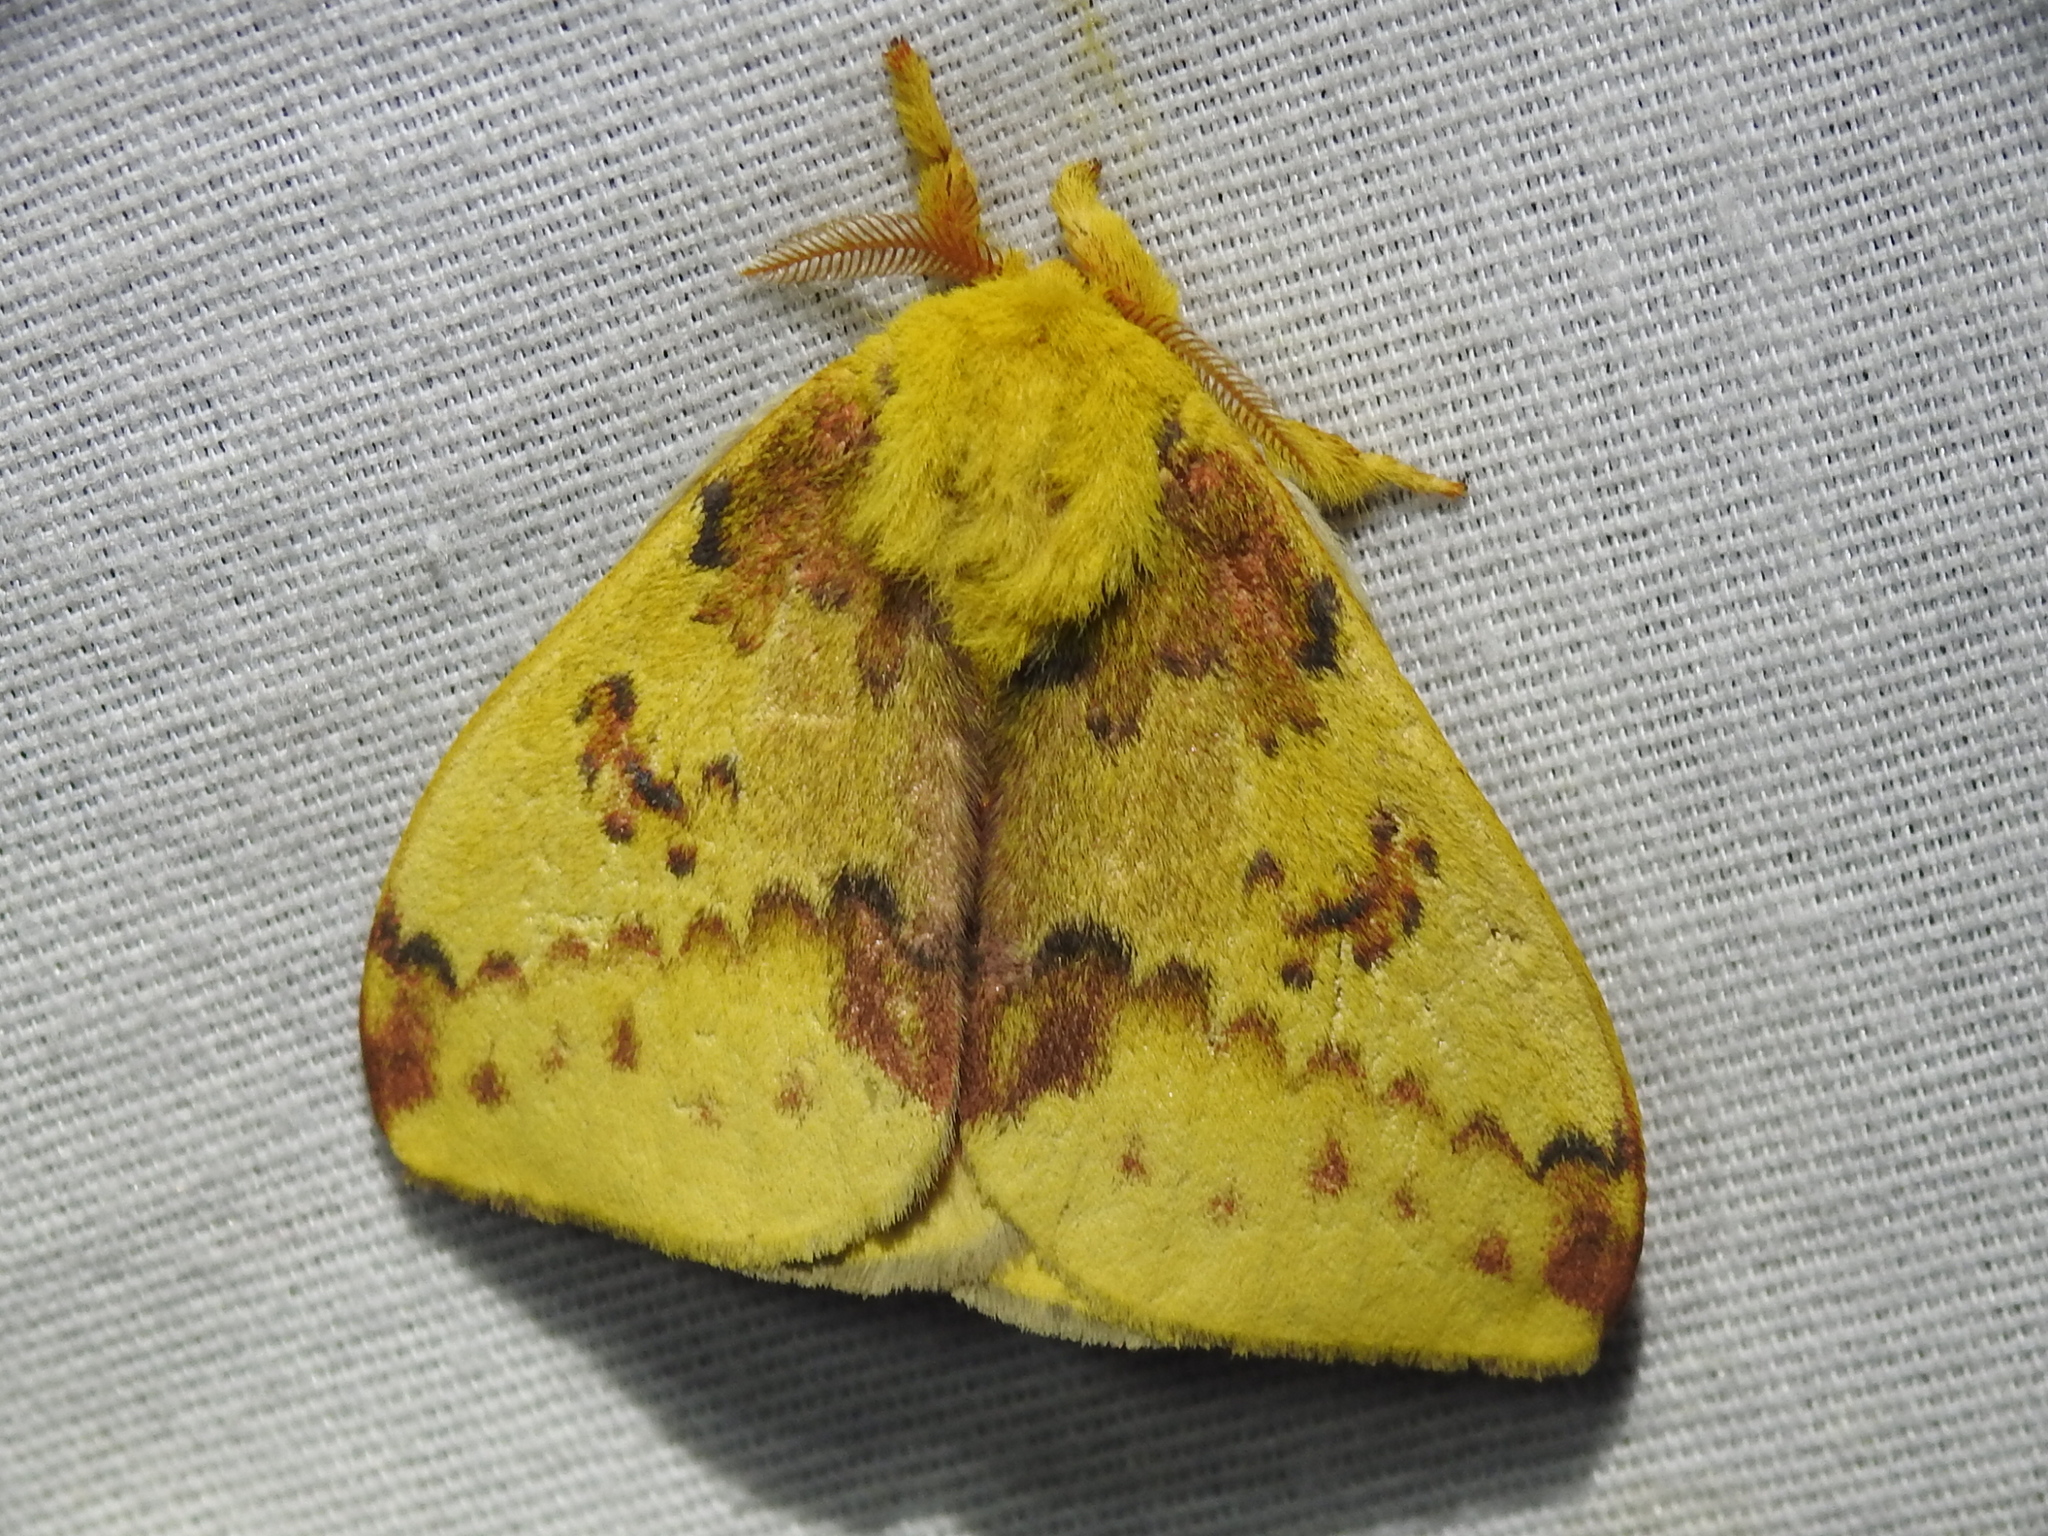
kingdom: Animalia
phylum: Arthropoda
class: Insecta
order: Lepidoptera
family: Saturniidae
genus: Automeris
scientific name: Automeris io
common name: Io moth
